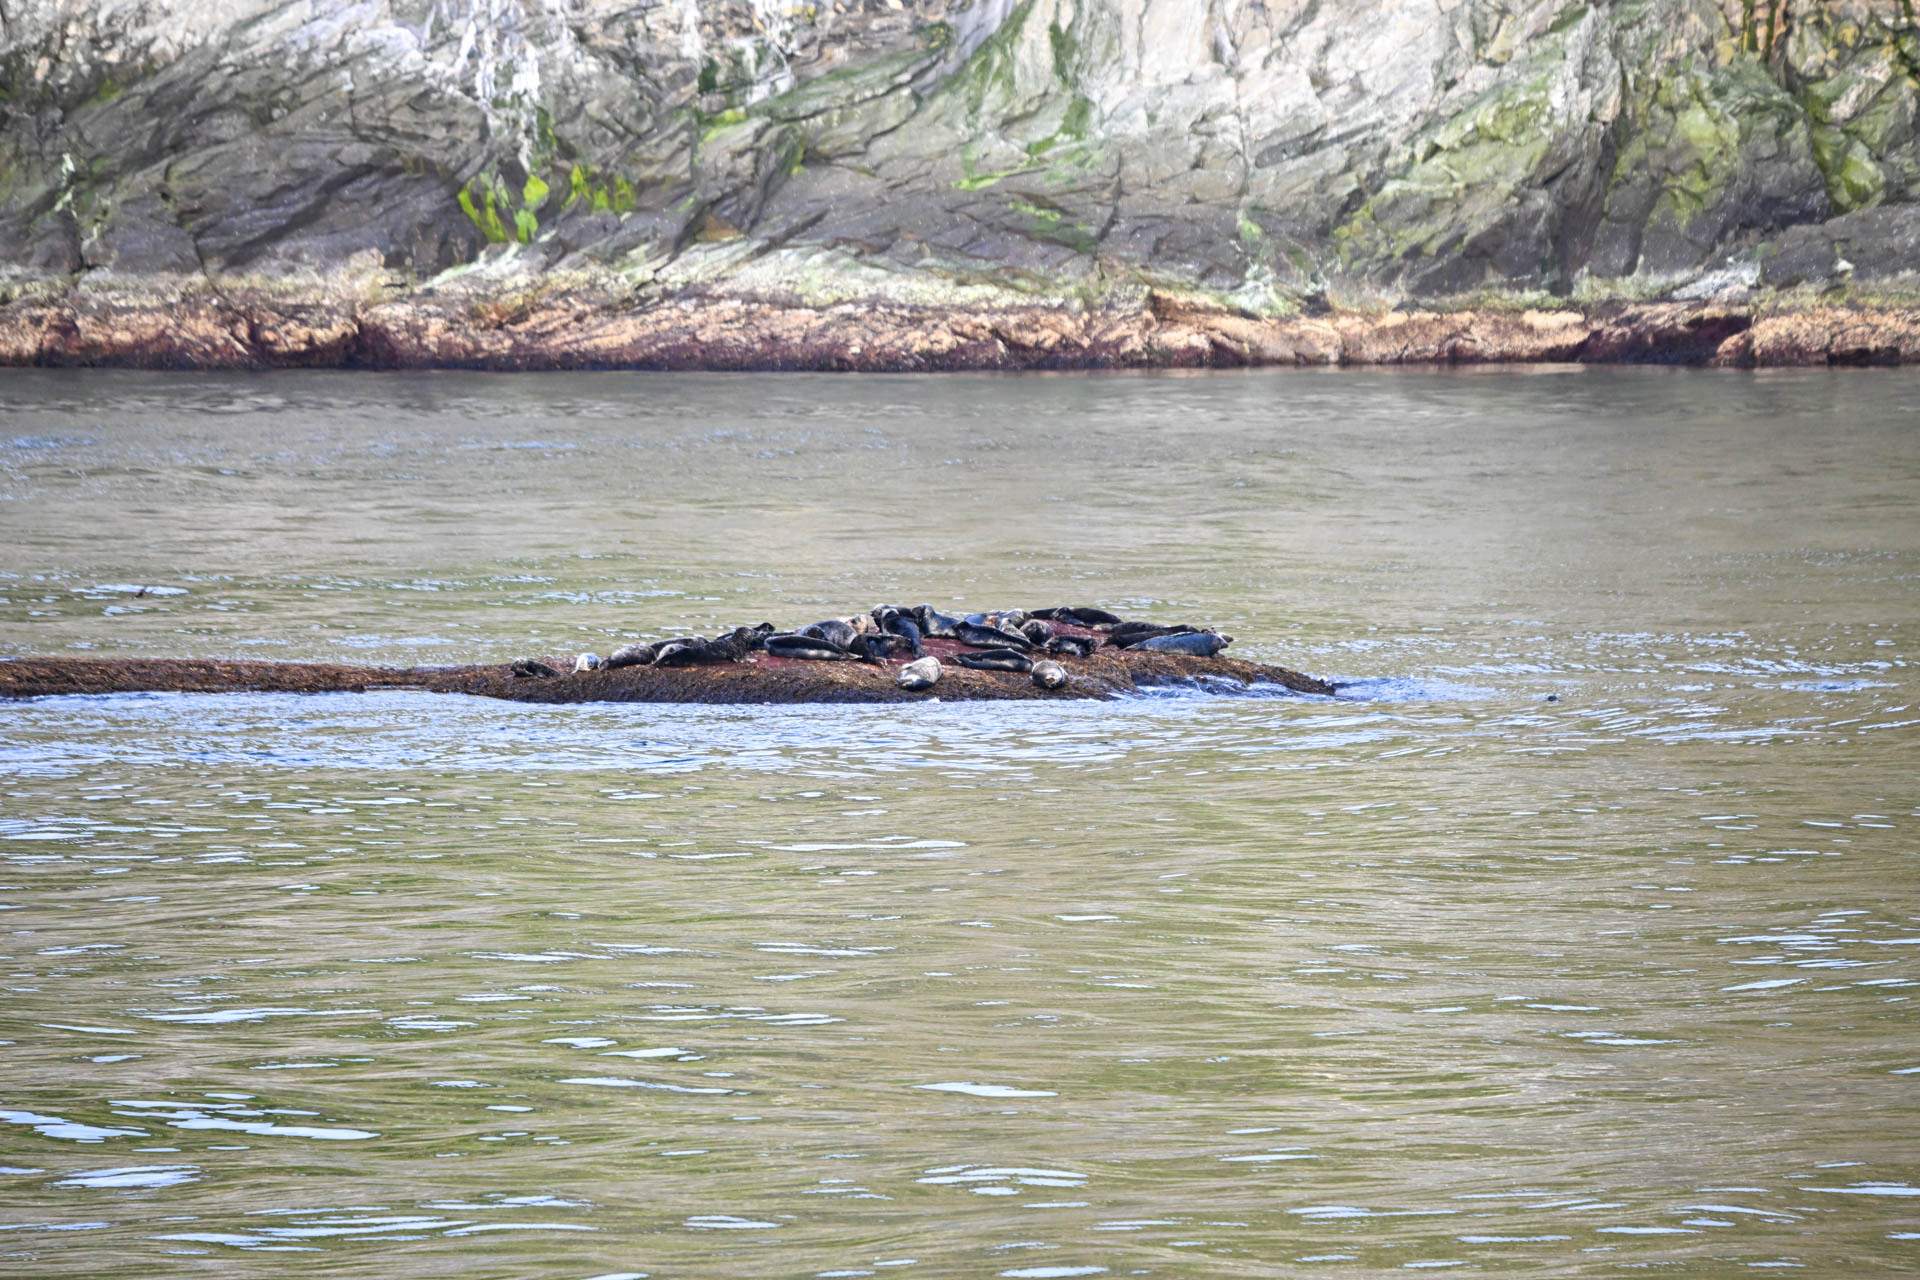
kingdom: Animalia
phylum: Chordata
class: Mammalia
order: Carnivora
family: Phocidae
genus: Halichoerus
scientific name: Halichoerus grypus
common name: Grey seal
